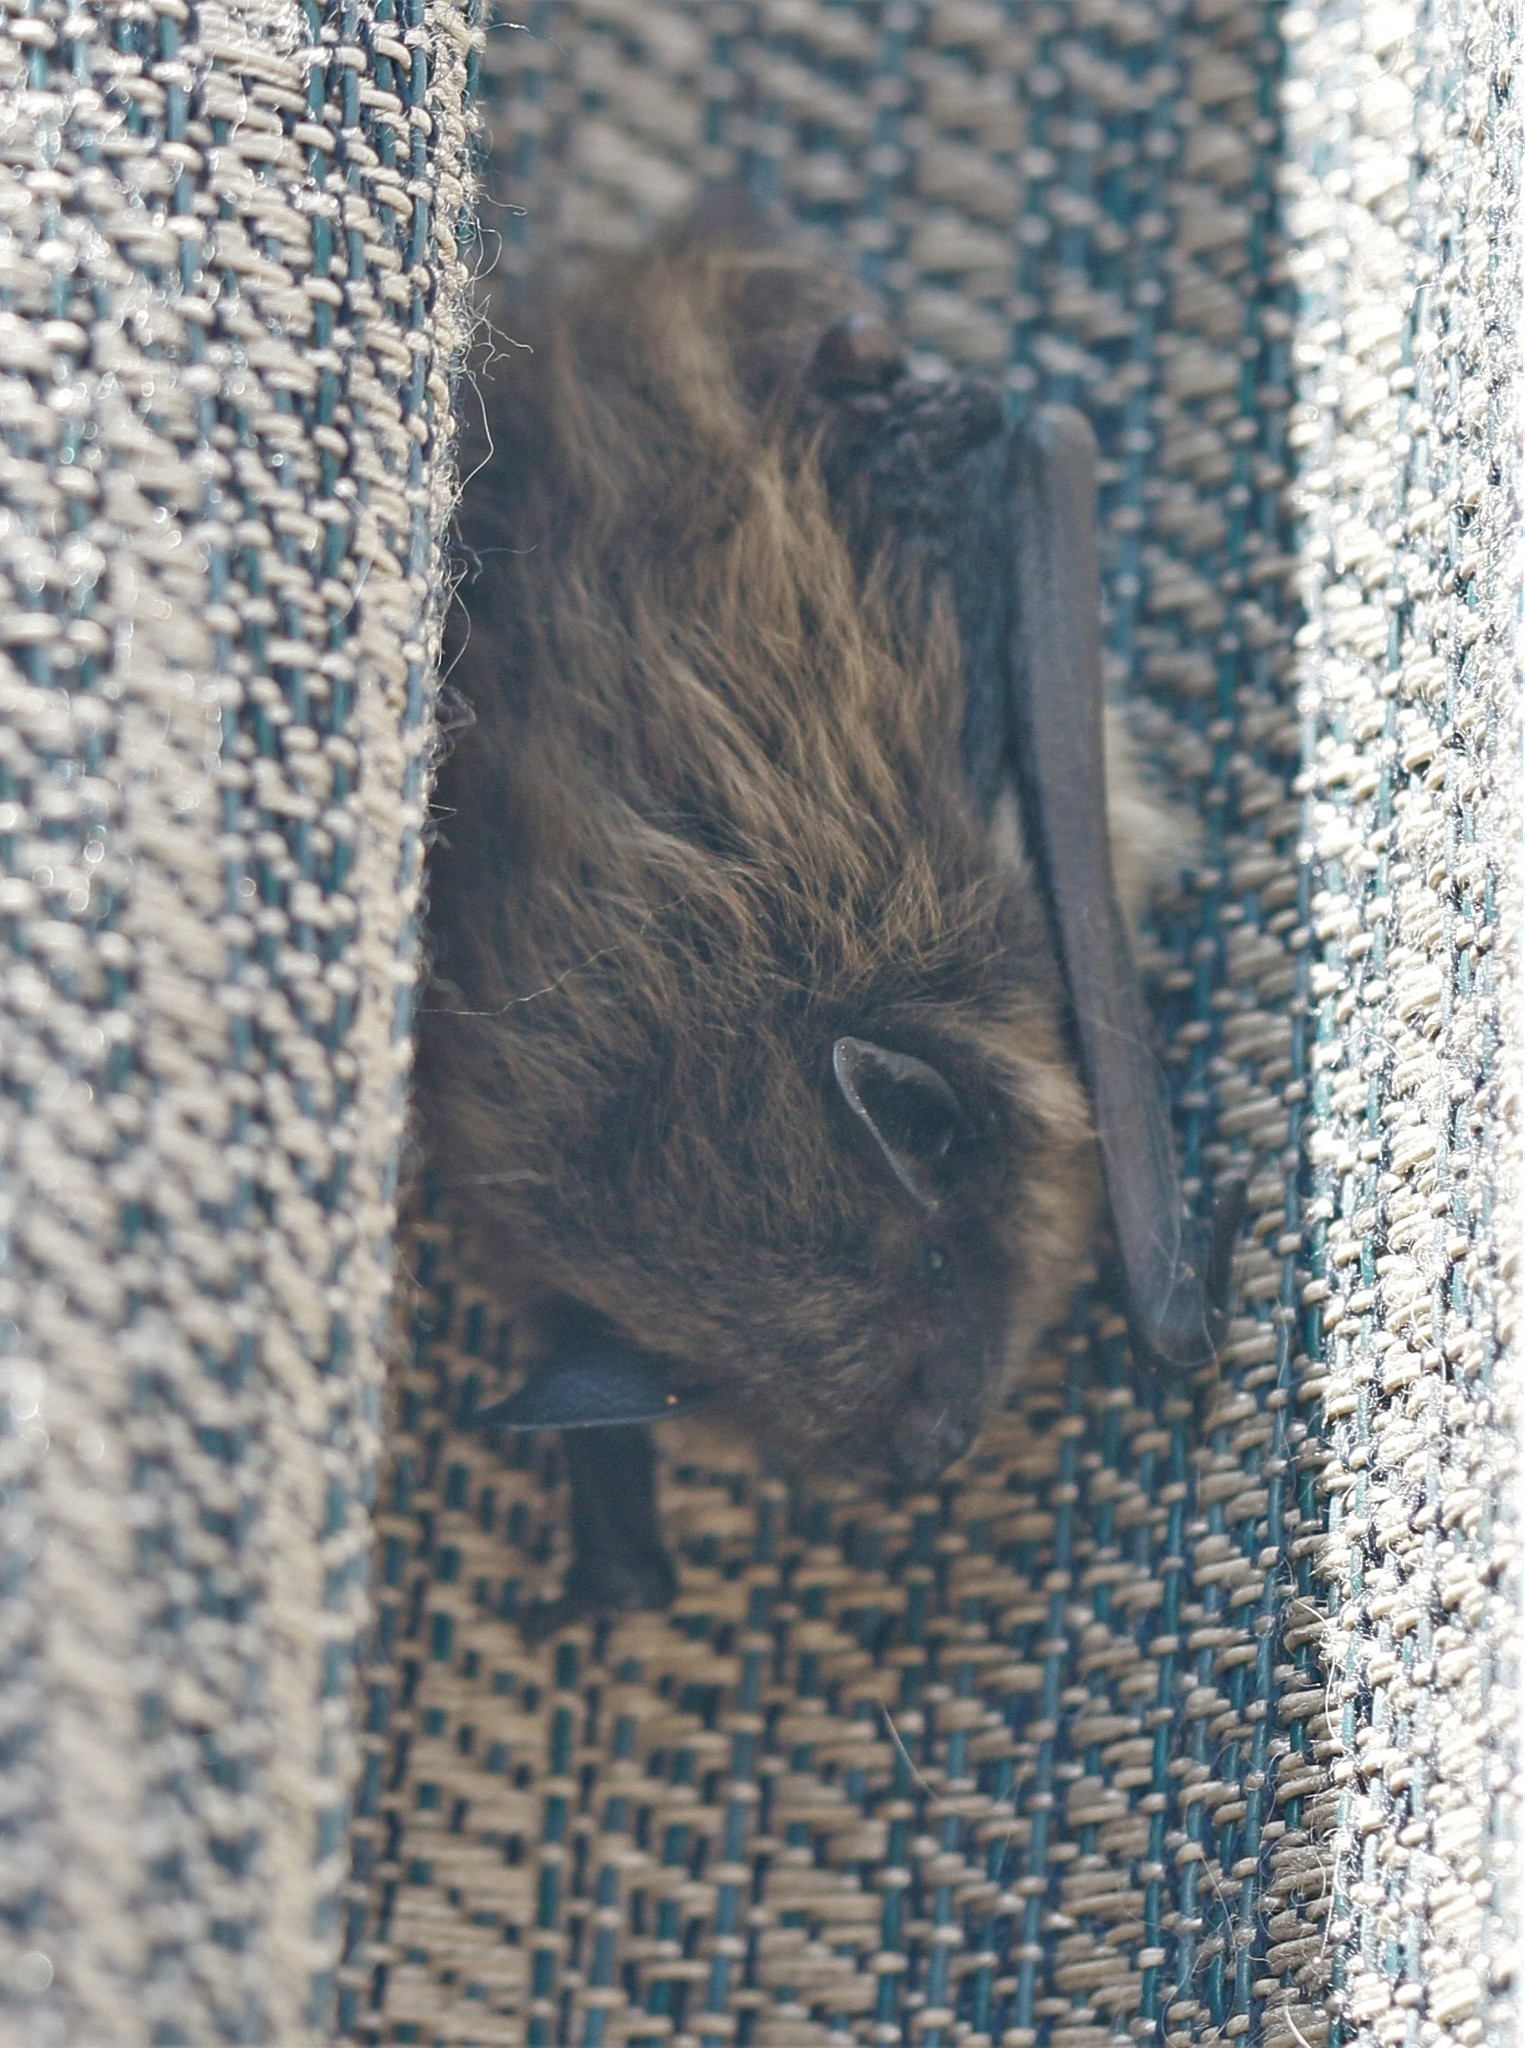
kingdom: Animalia
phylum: Chordata
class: Mammalia
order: Chiroptera
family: Vespertilionidae
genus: Myotis
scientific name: Myotis lucifugus
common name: Little brown bat
